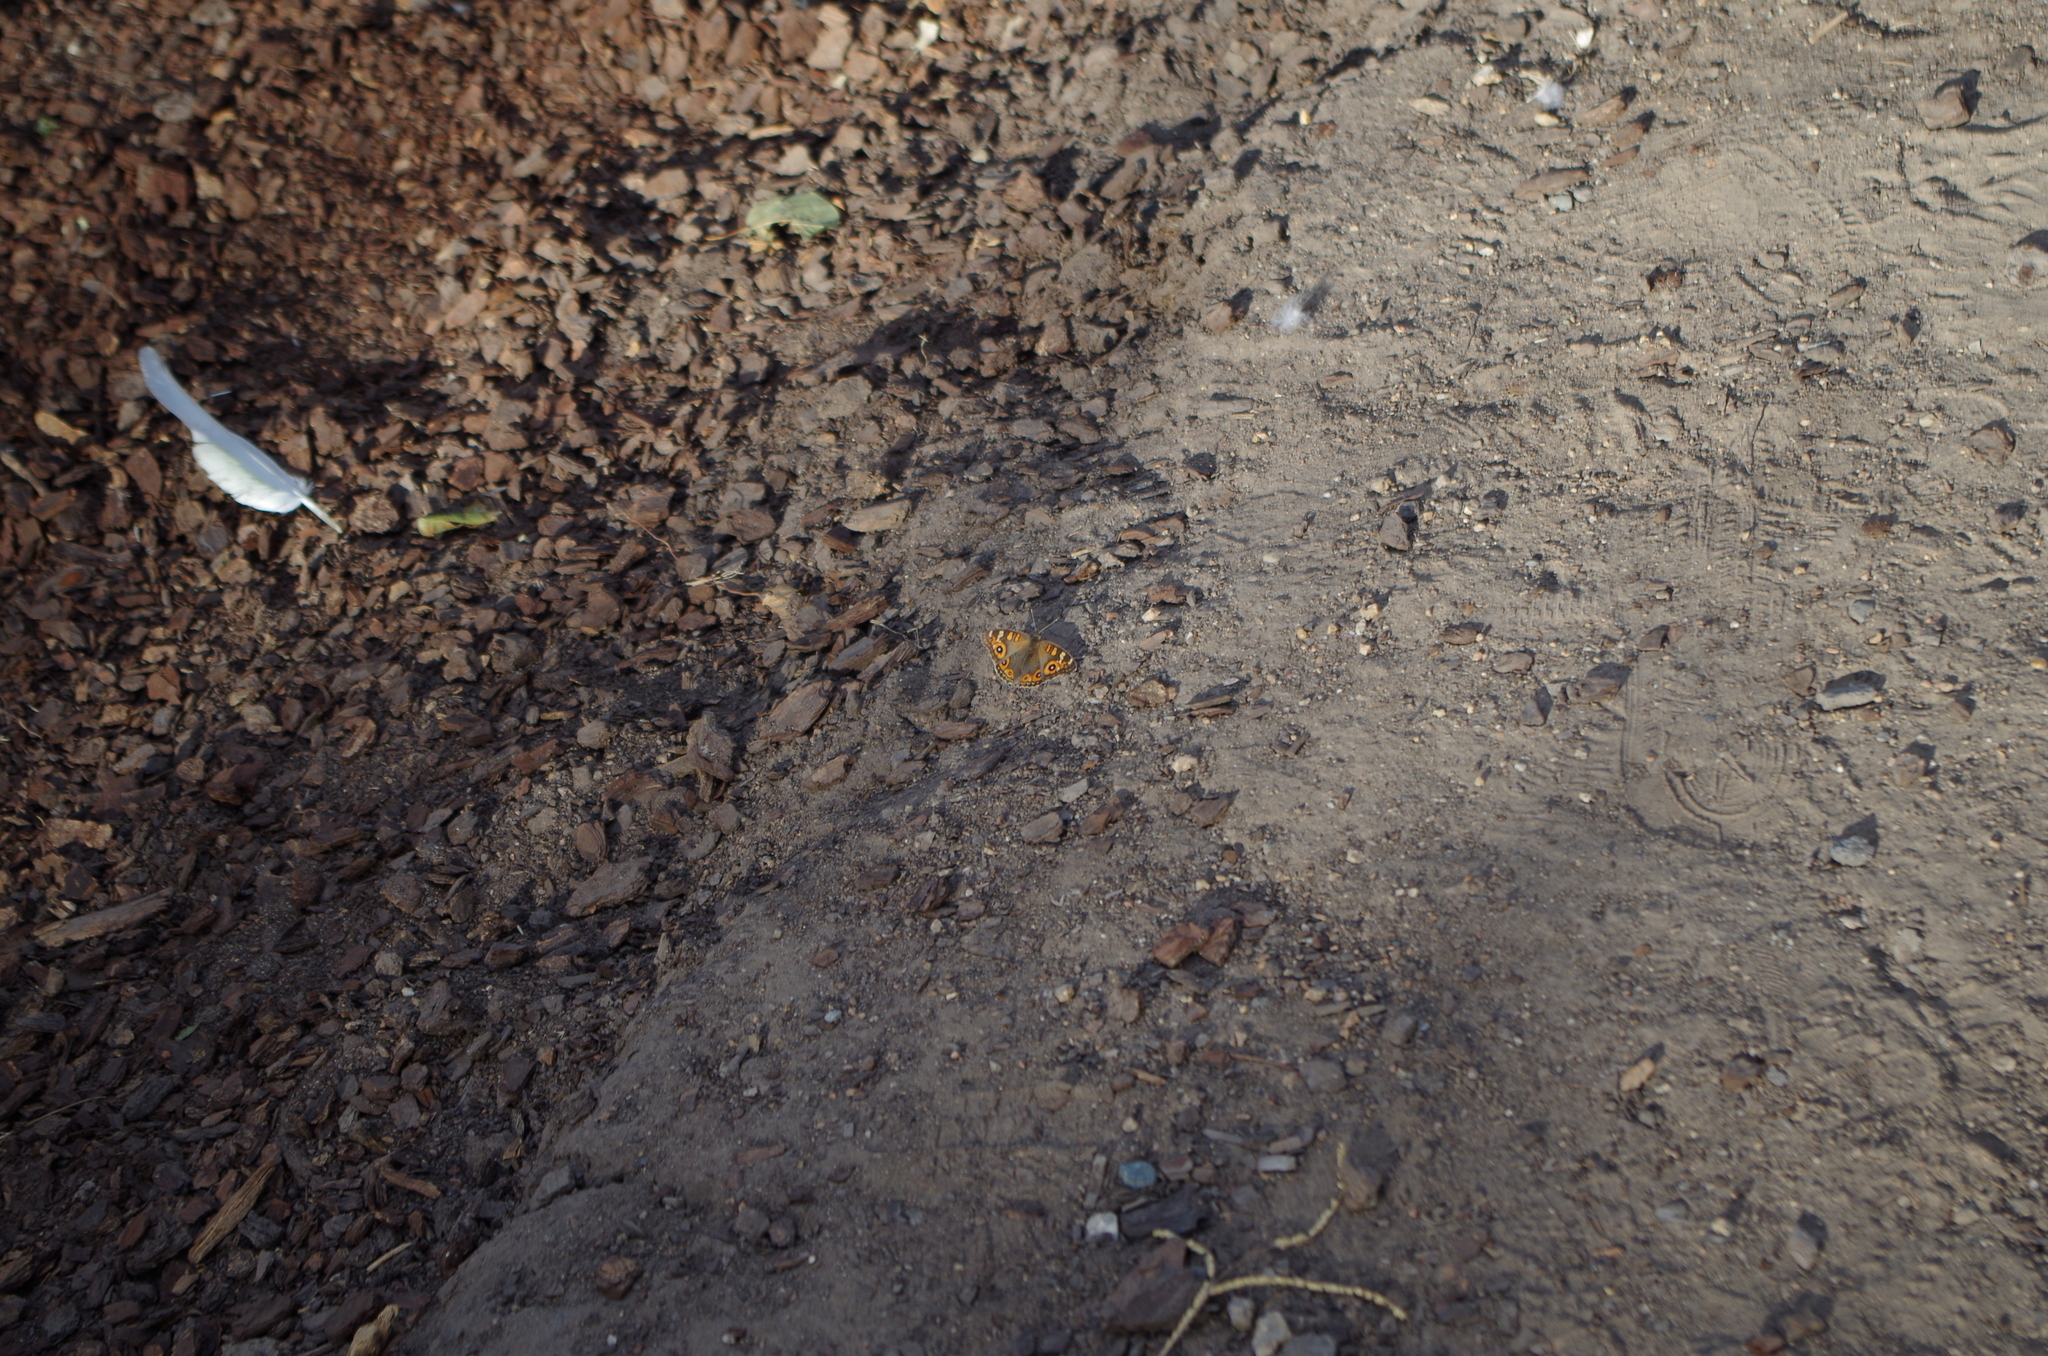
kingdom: Animalia
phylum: Arthropoda
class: Insecta
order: Lepidoptera
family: Nymphalidae
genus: Junonia
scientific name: Junonia villida
